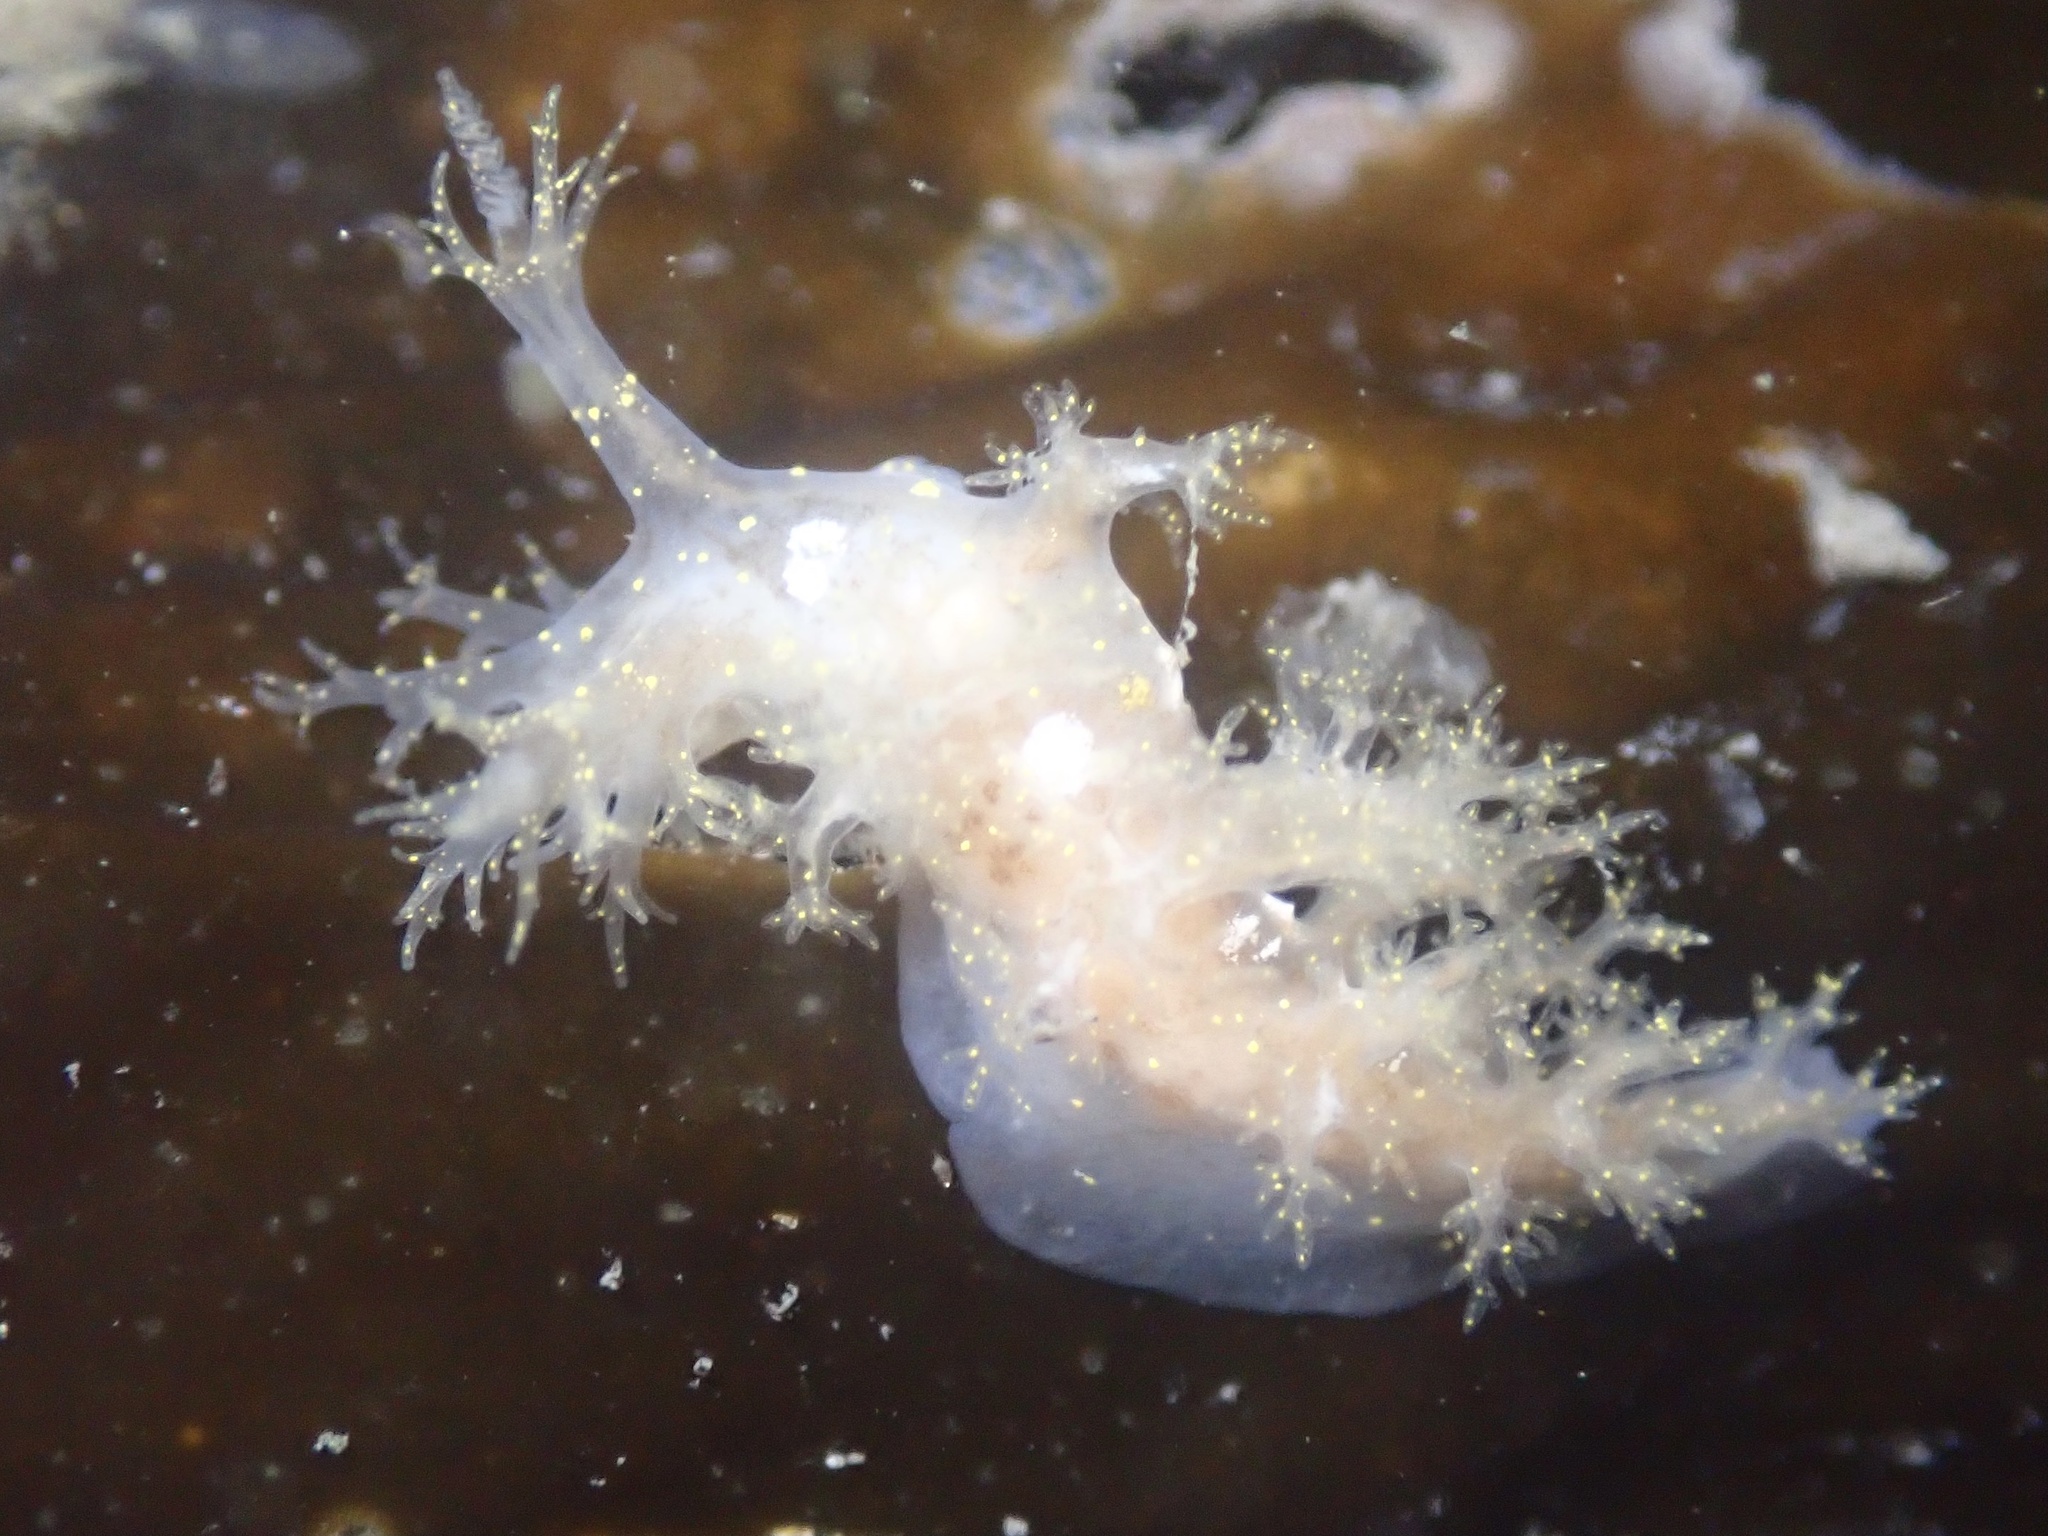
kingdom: Animalia
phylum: Mollusca
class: Gastropoda
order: Nudibranchia
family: Dendronotidae
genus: Dendronotus
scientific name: Dendronotus venustus
